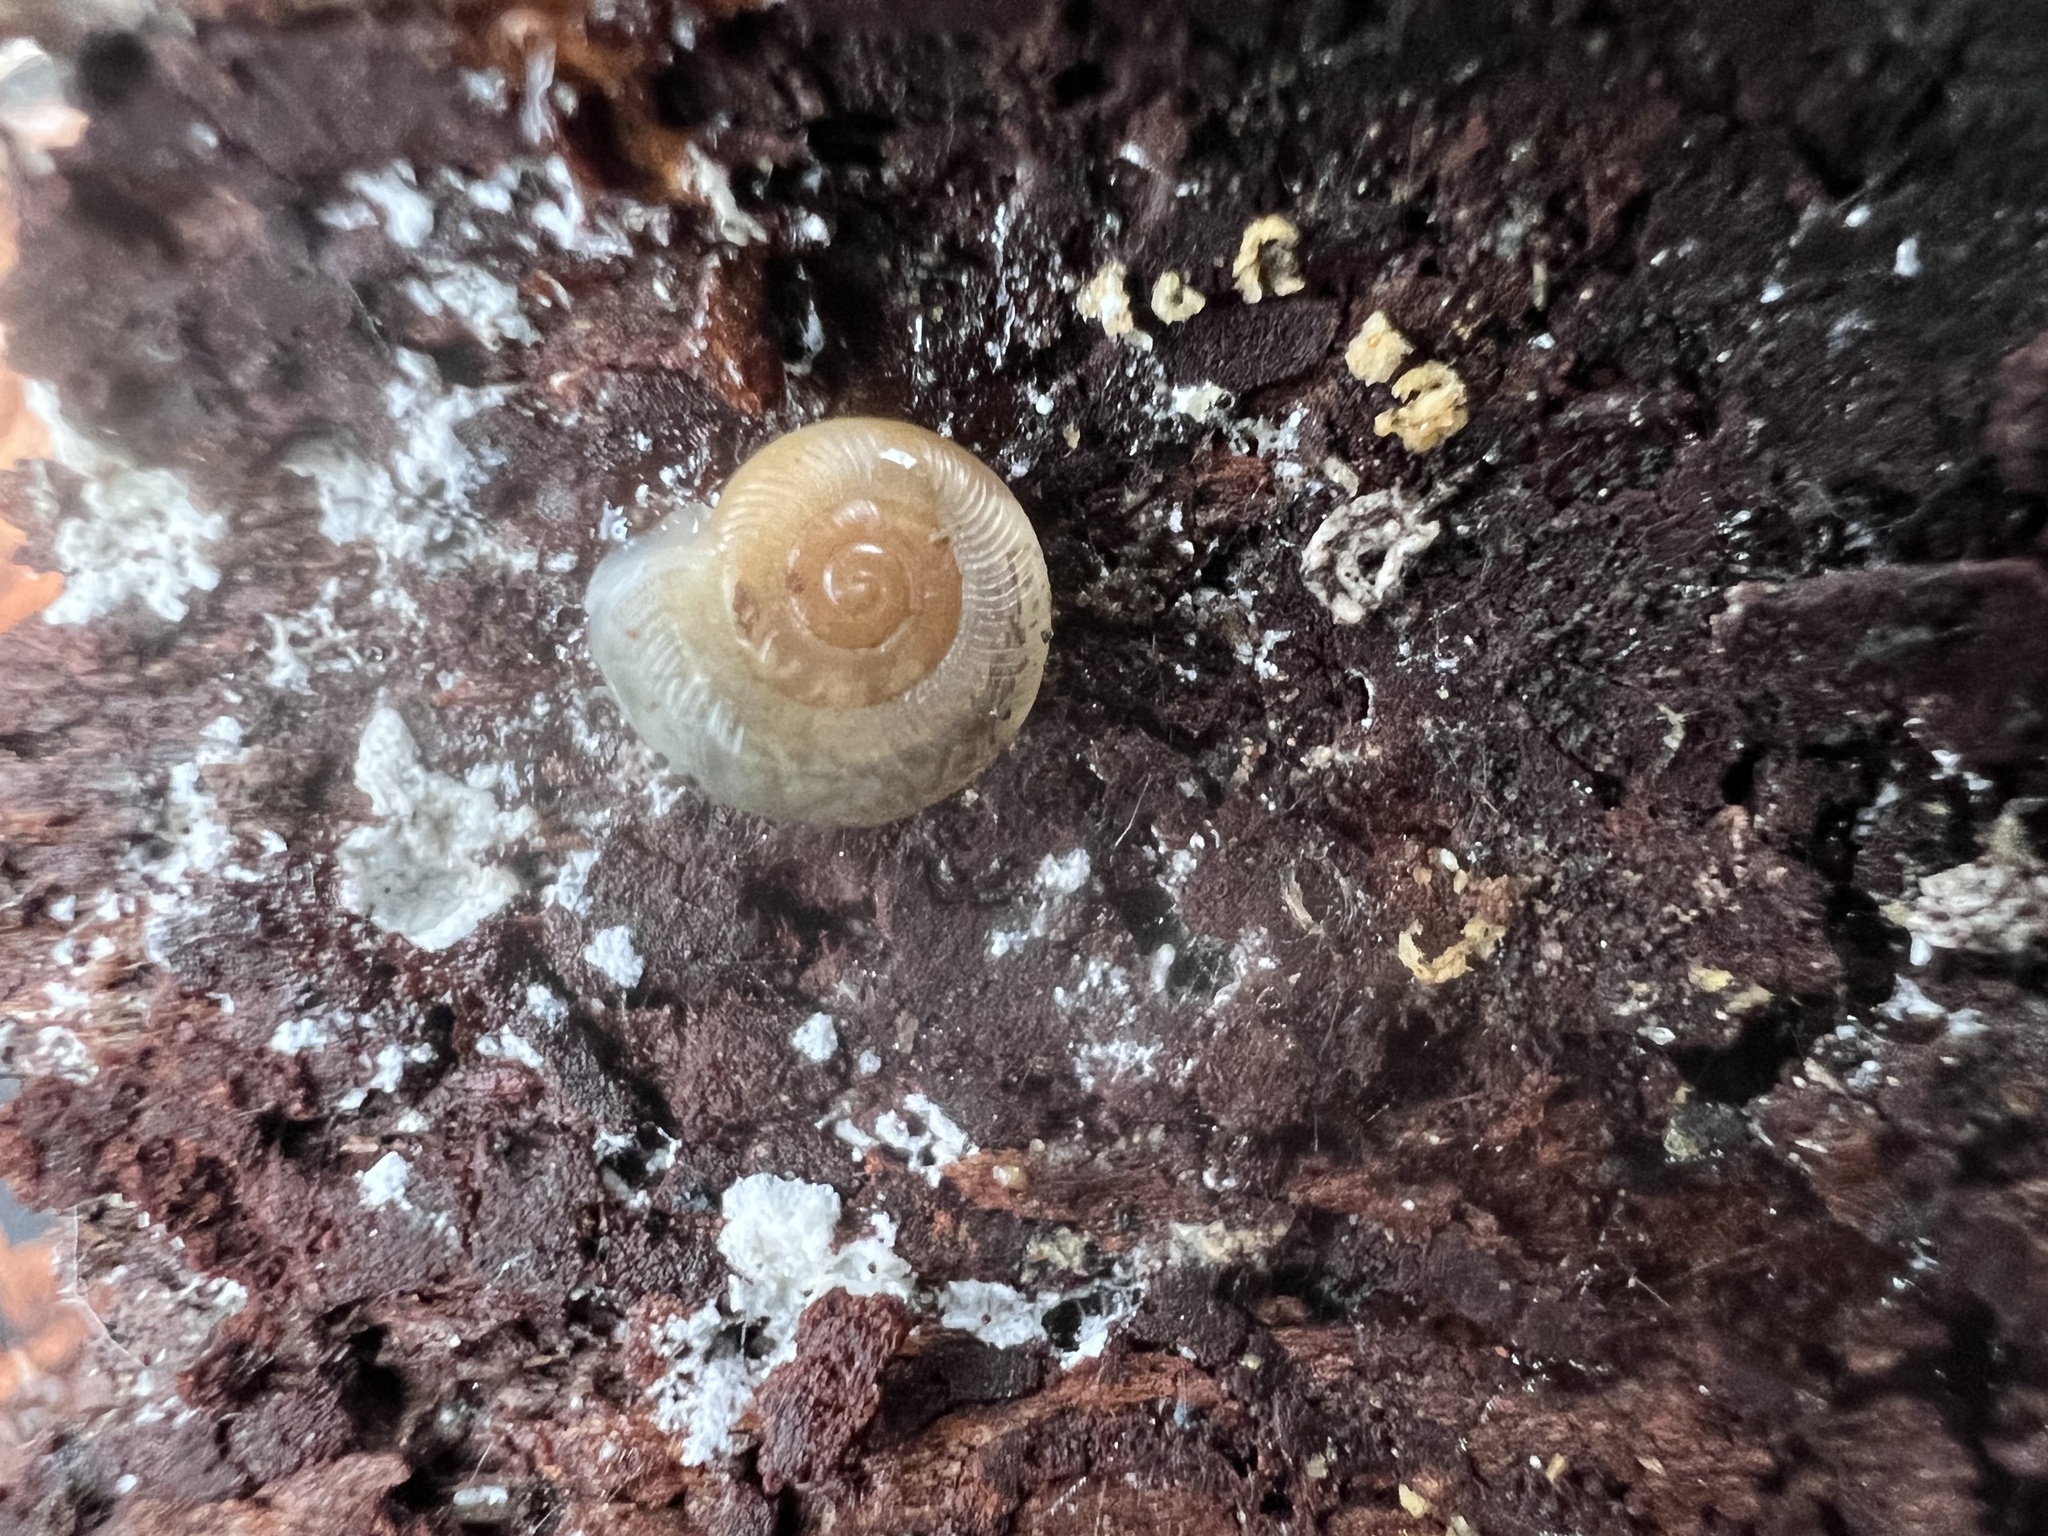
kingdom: Animalia
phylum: Mollusca
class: Gastropoda
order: Stylommatophora
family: Haplotrematidae
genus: Ancotrema
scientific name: Ancotrema sportella
